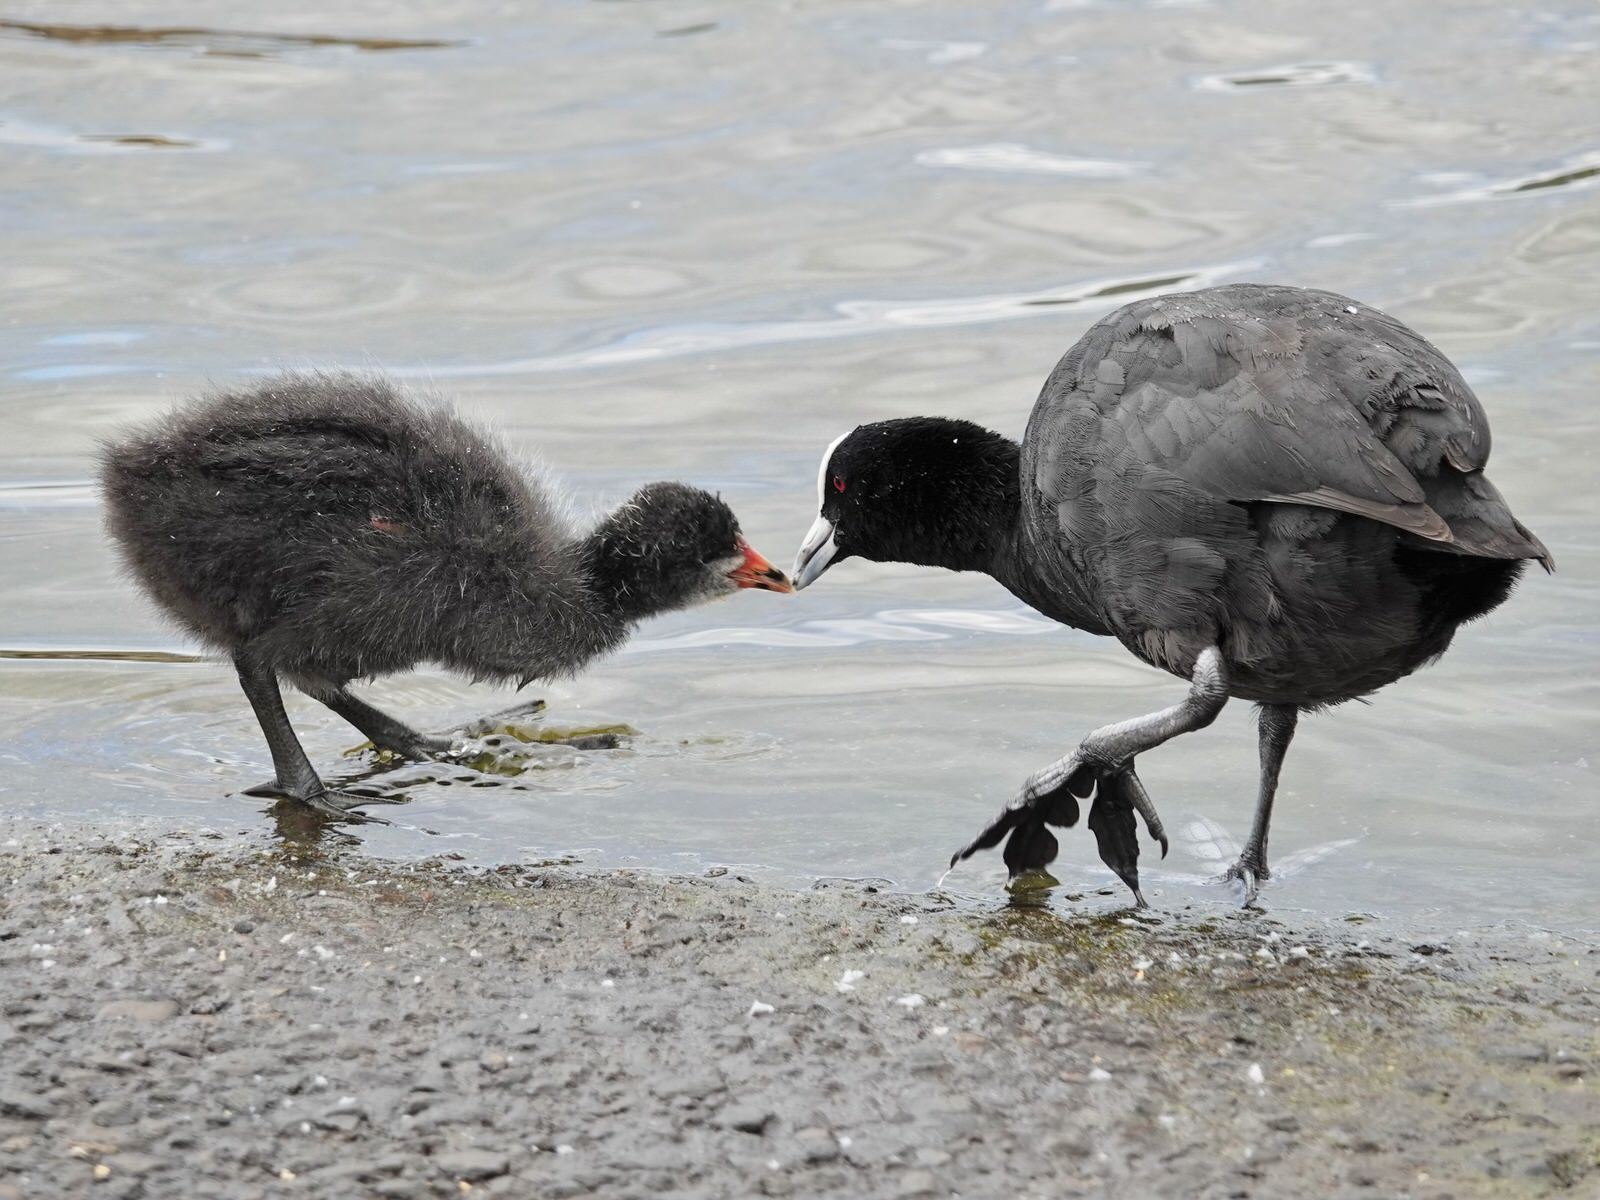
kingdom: Animalia
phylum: Chordata
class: Aves
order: Gruiformes
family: Rallidae
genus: Fulica
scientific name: Fulica atra
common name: Eurasian coot
